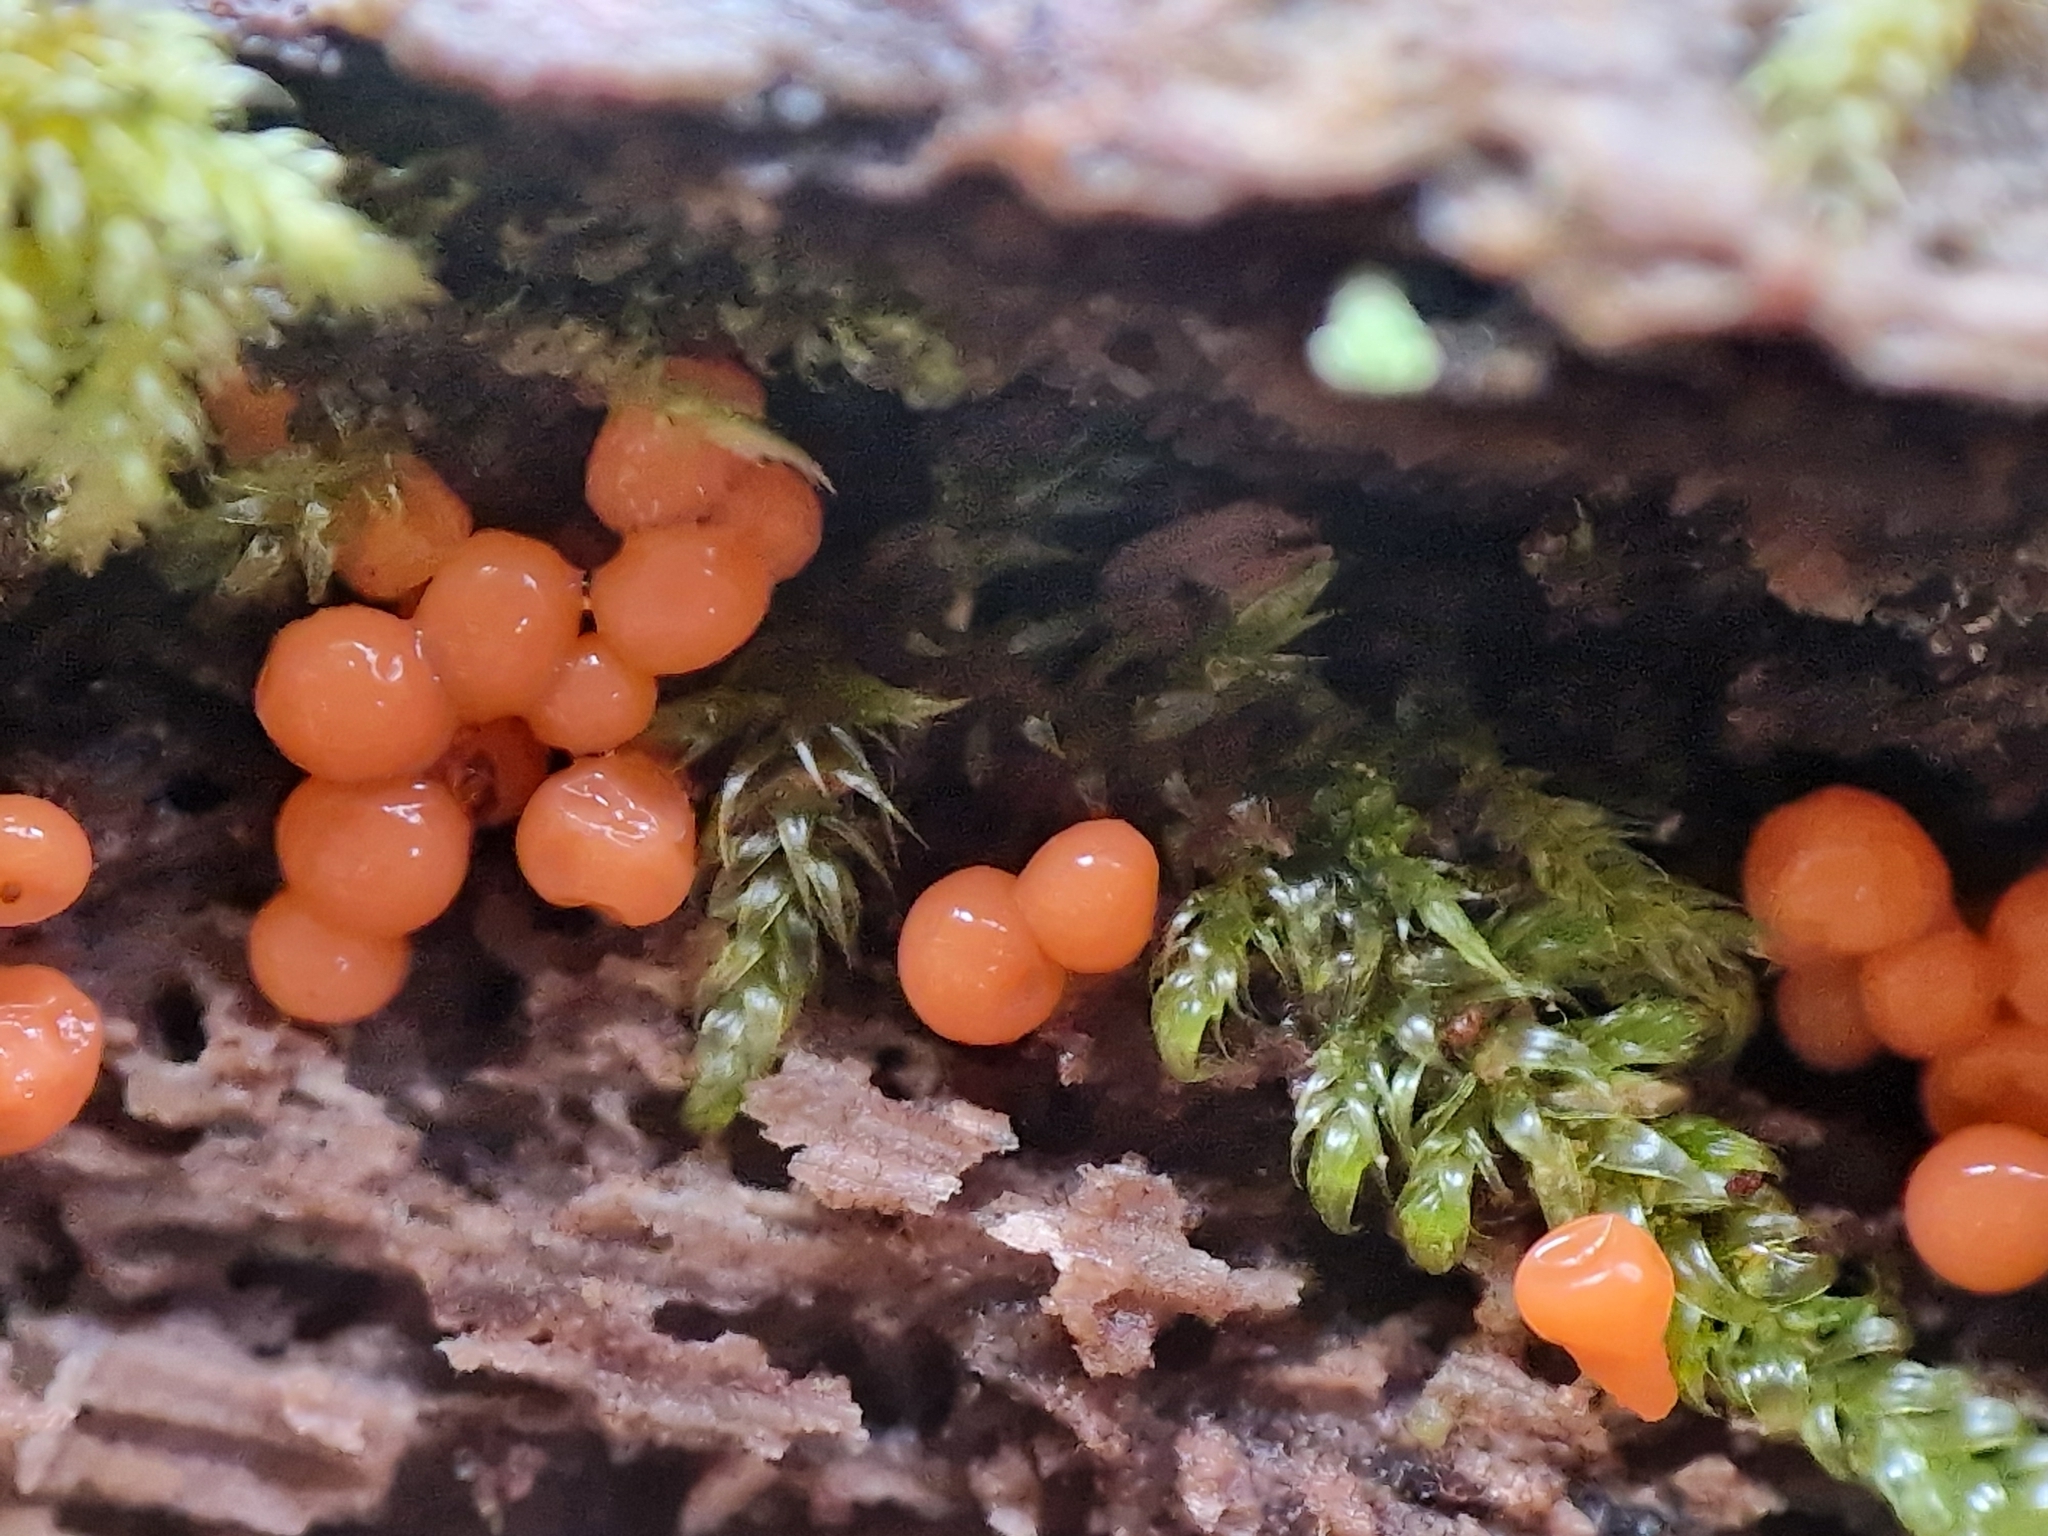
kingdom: Protozoa
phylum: Mycetozoa
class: Myxomycetes
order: Trichiales
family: Arcyriaceae
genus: Hemitrichia
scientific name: Hemitrichia decipiens
